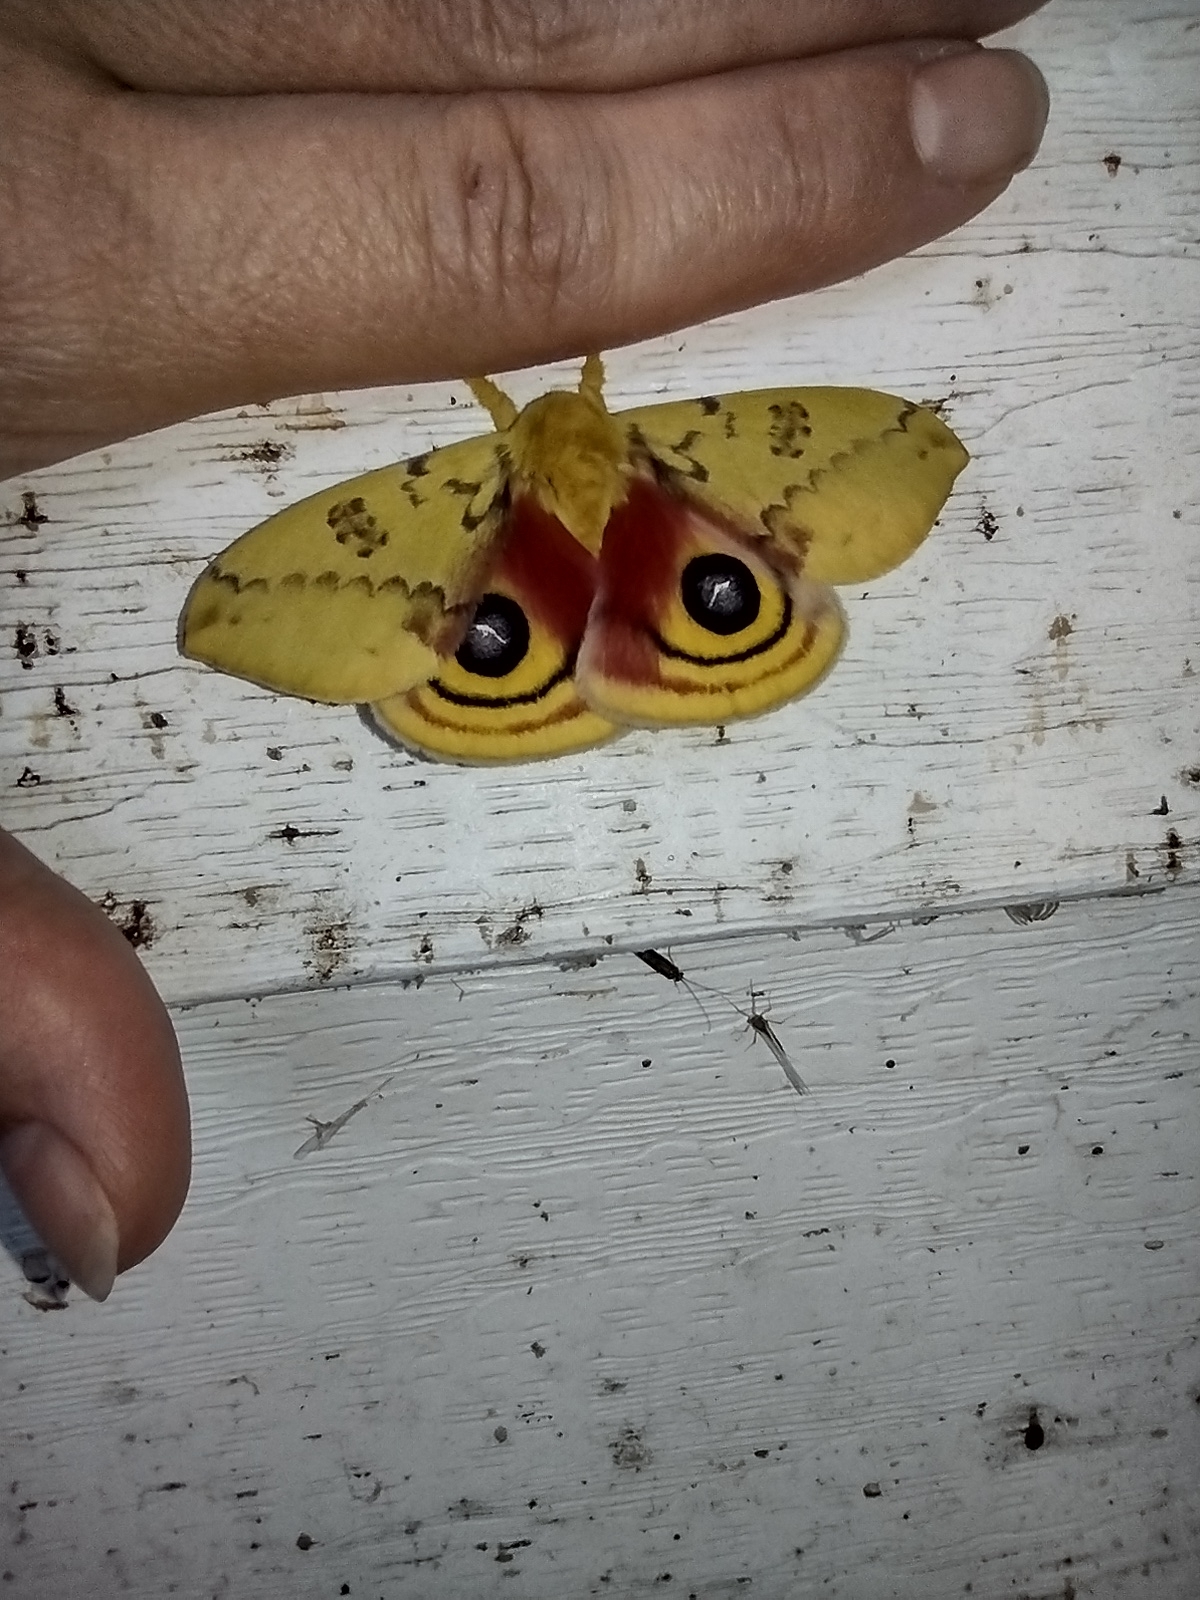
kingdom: Animalia
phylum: Arthropoda
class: Insecta
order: Lepidoptera
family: Saturniidae
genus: Automeris
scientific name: Automeris io
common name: Io moth
